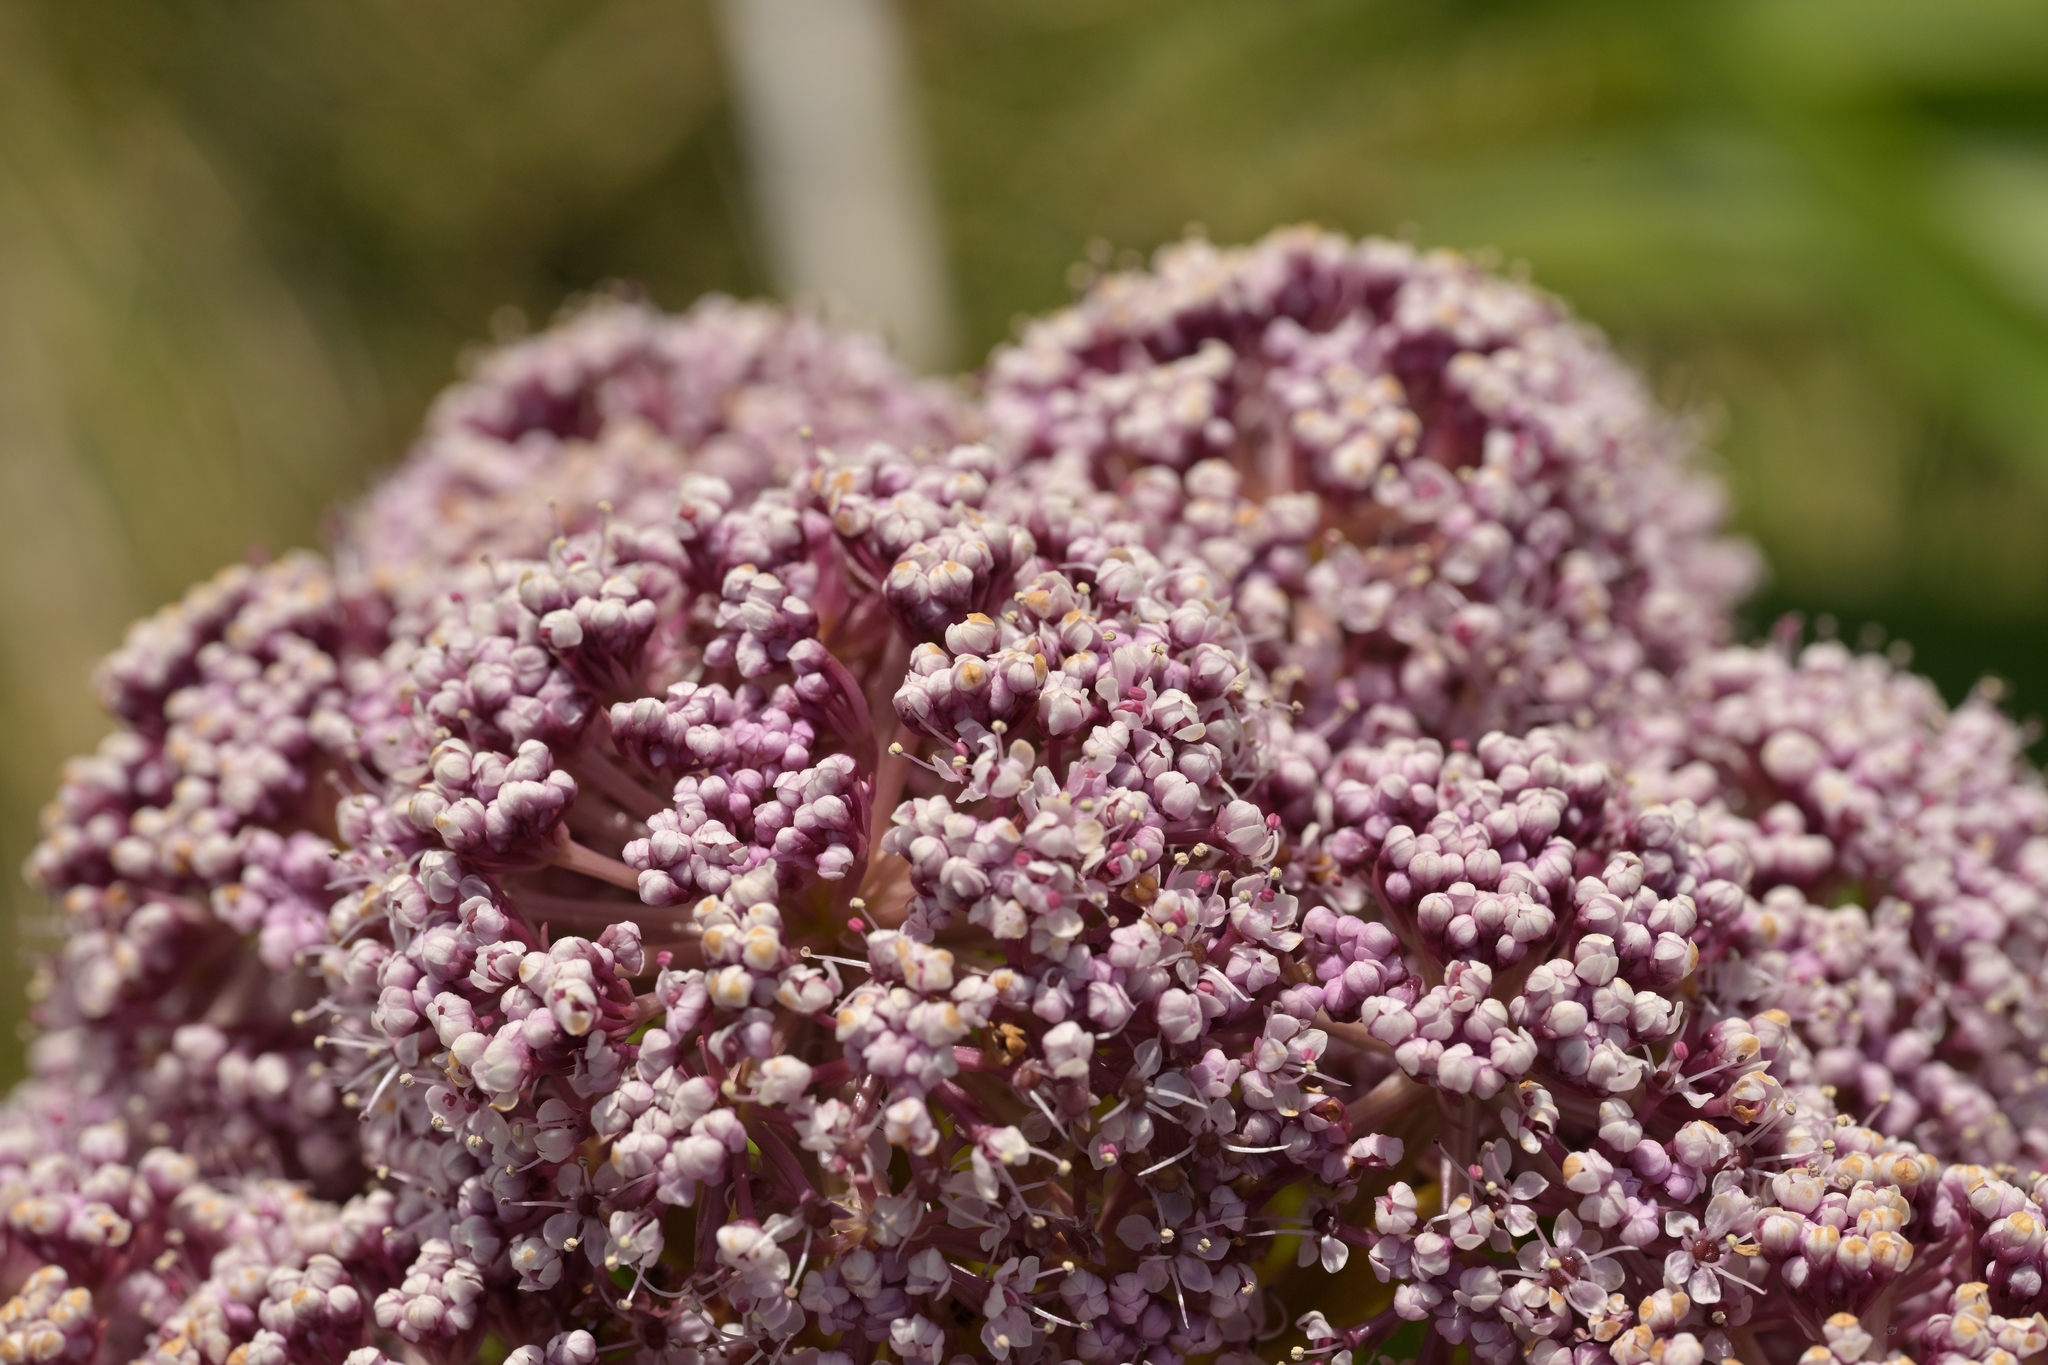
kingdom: Plantae
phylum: Tracheophyta
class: Magnoliopsida
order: Apiales
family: Apiaceae
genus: Anisotome
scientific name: Anisotome latifolia
